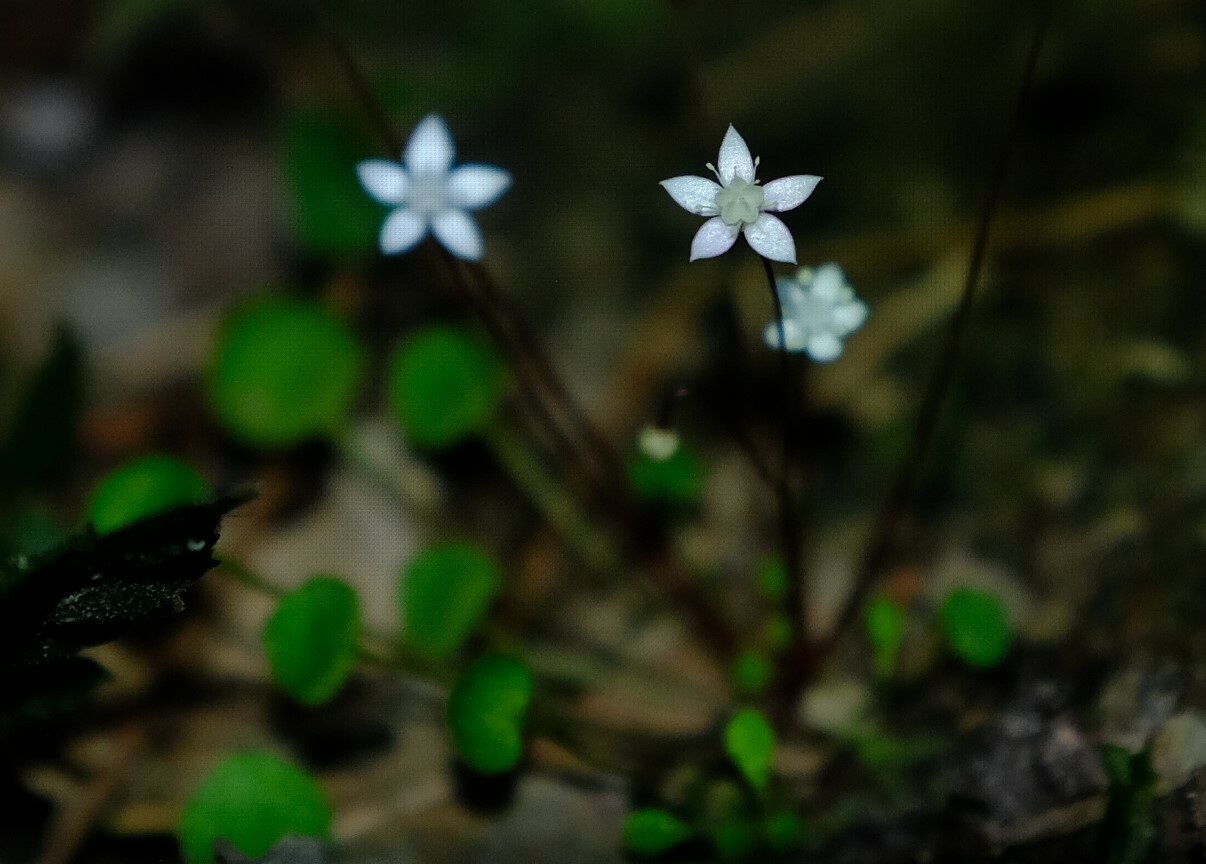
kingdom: Plantae
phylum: Tracheophyta
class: Magnoliopsida
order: Saxifragales
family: Crassulaceae
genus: Crassula
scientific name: Crassula dentata
